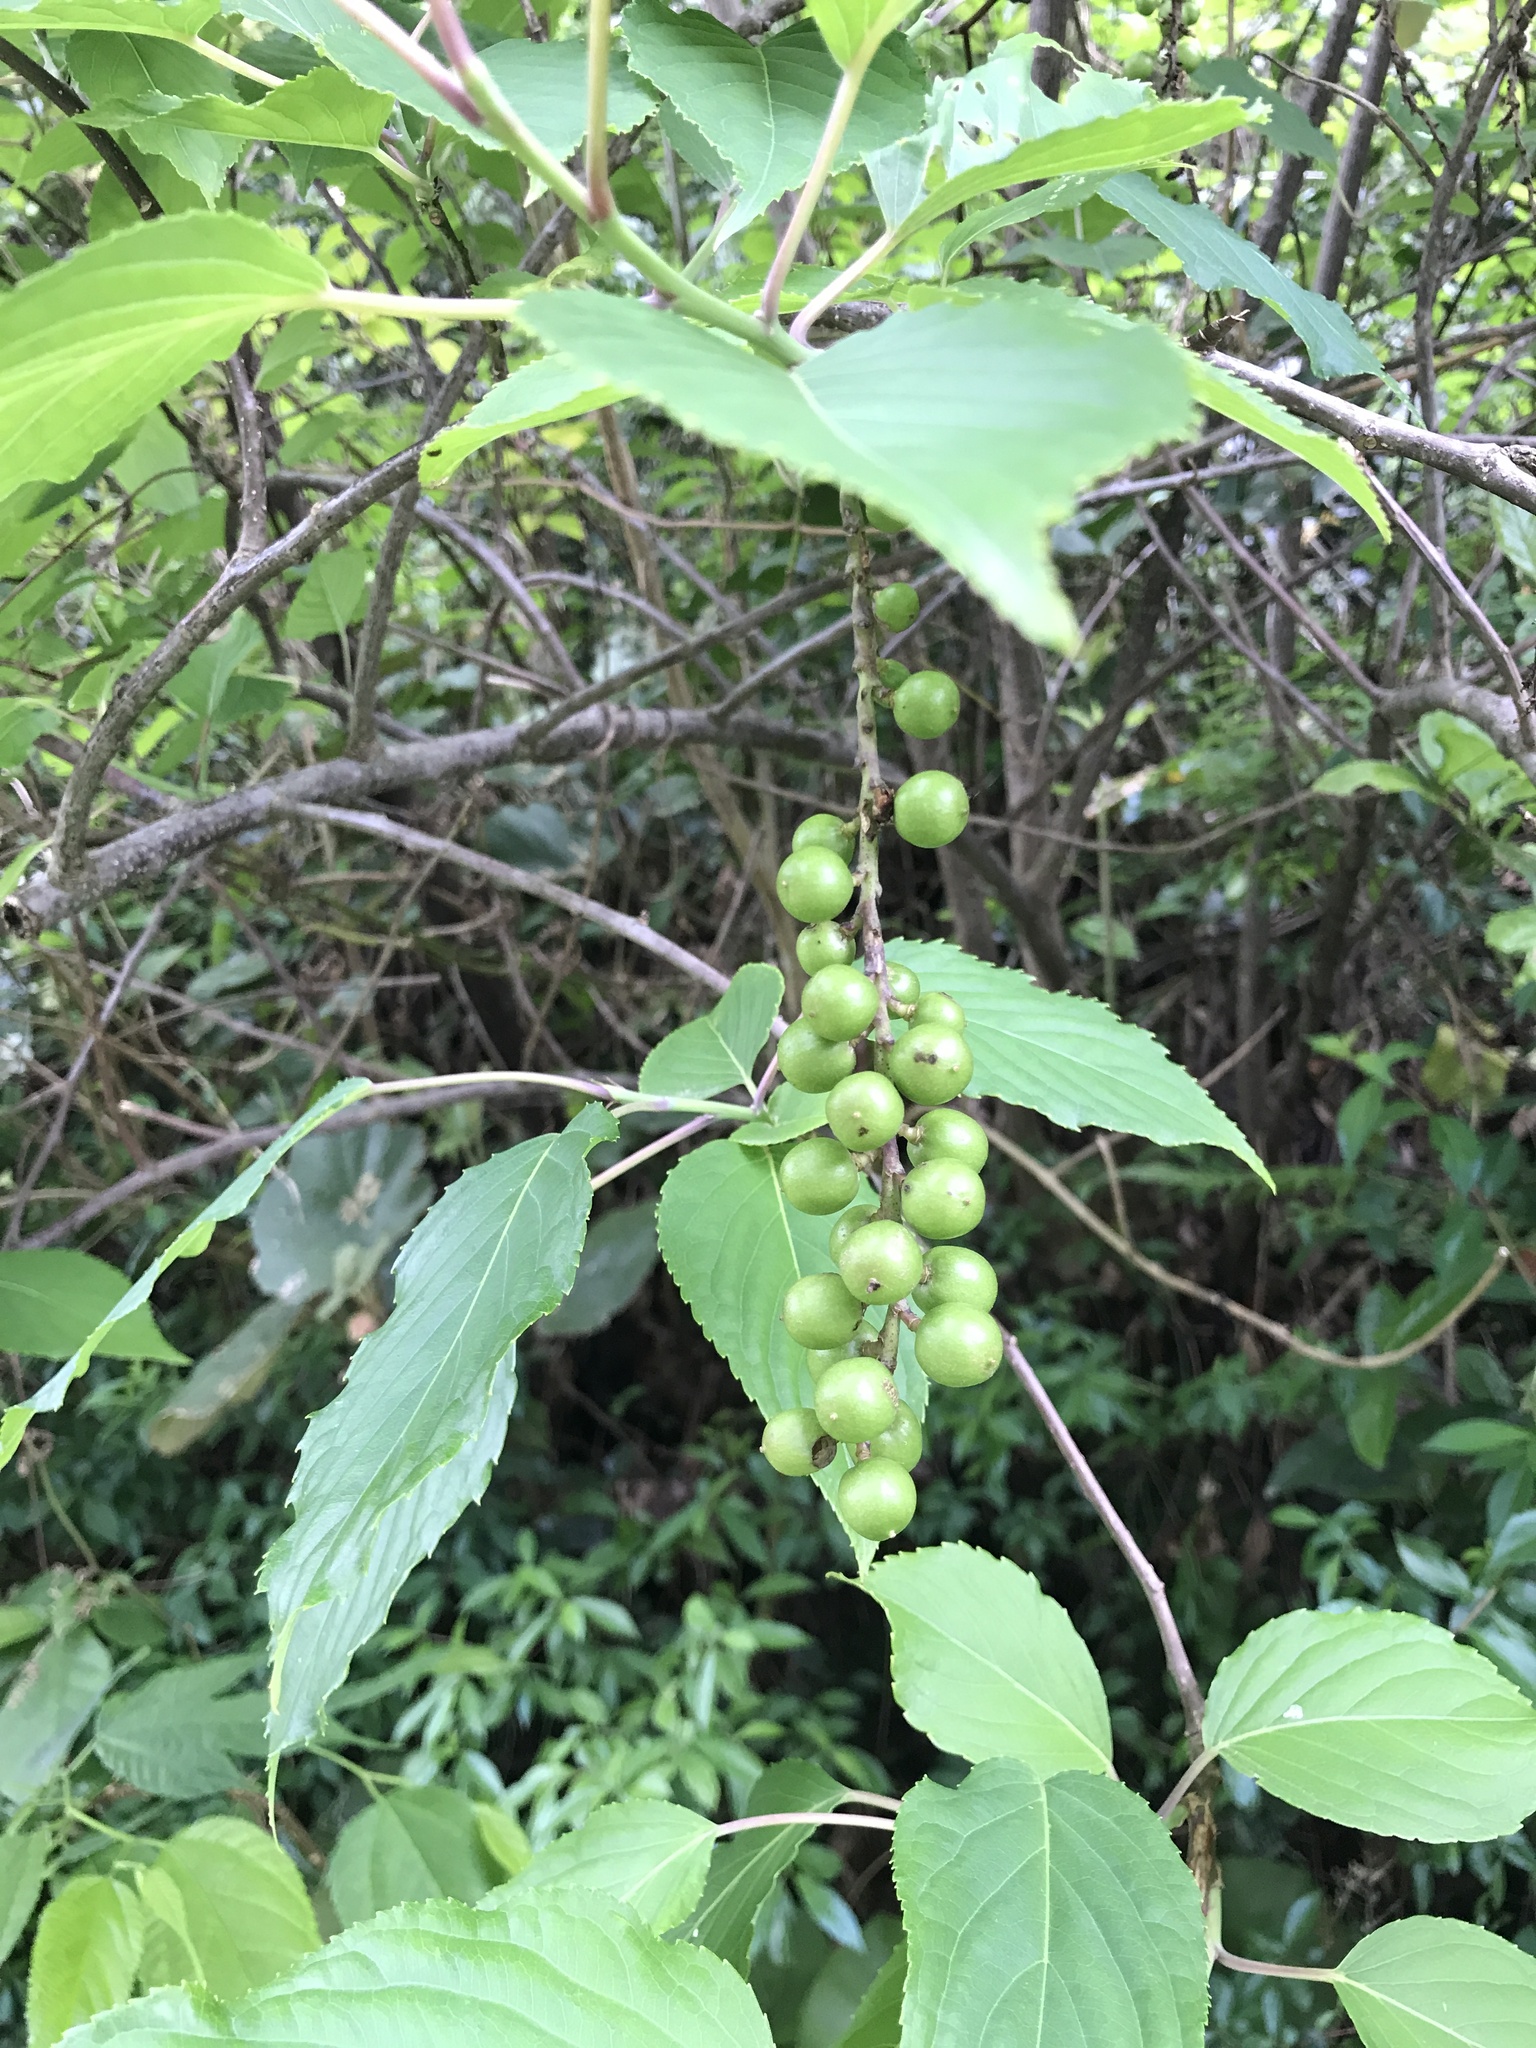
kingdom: Plantae
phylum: Tracheophyta
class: Magnoliopsida
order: Crossosomatales
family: Stachyuraceae
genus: Stachyurus
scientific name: Stachyurus praecox
